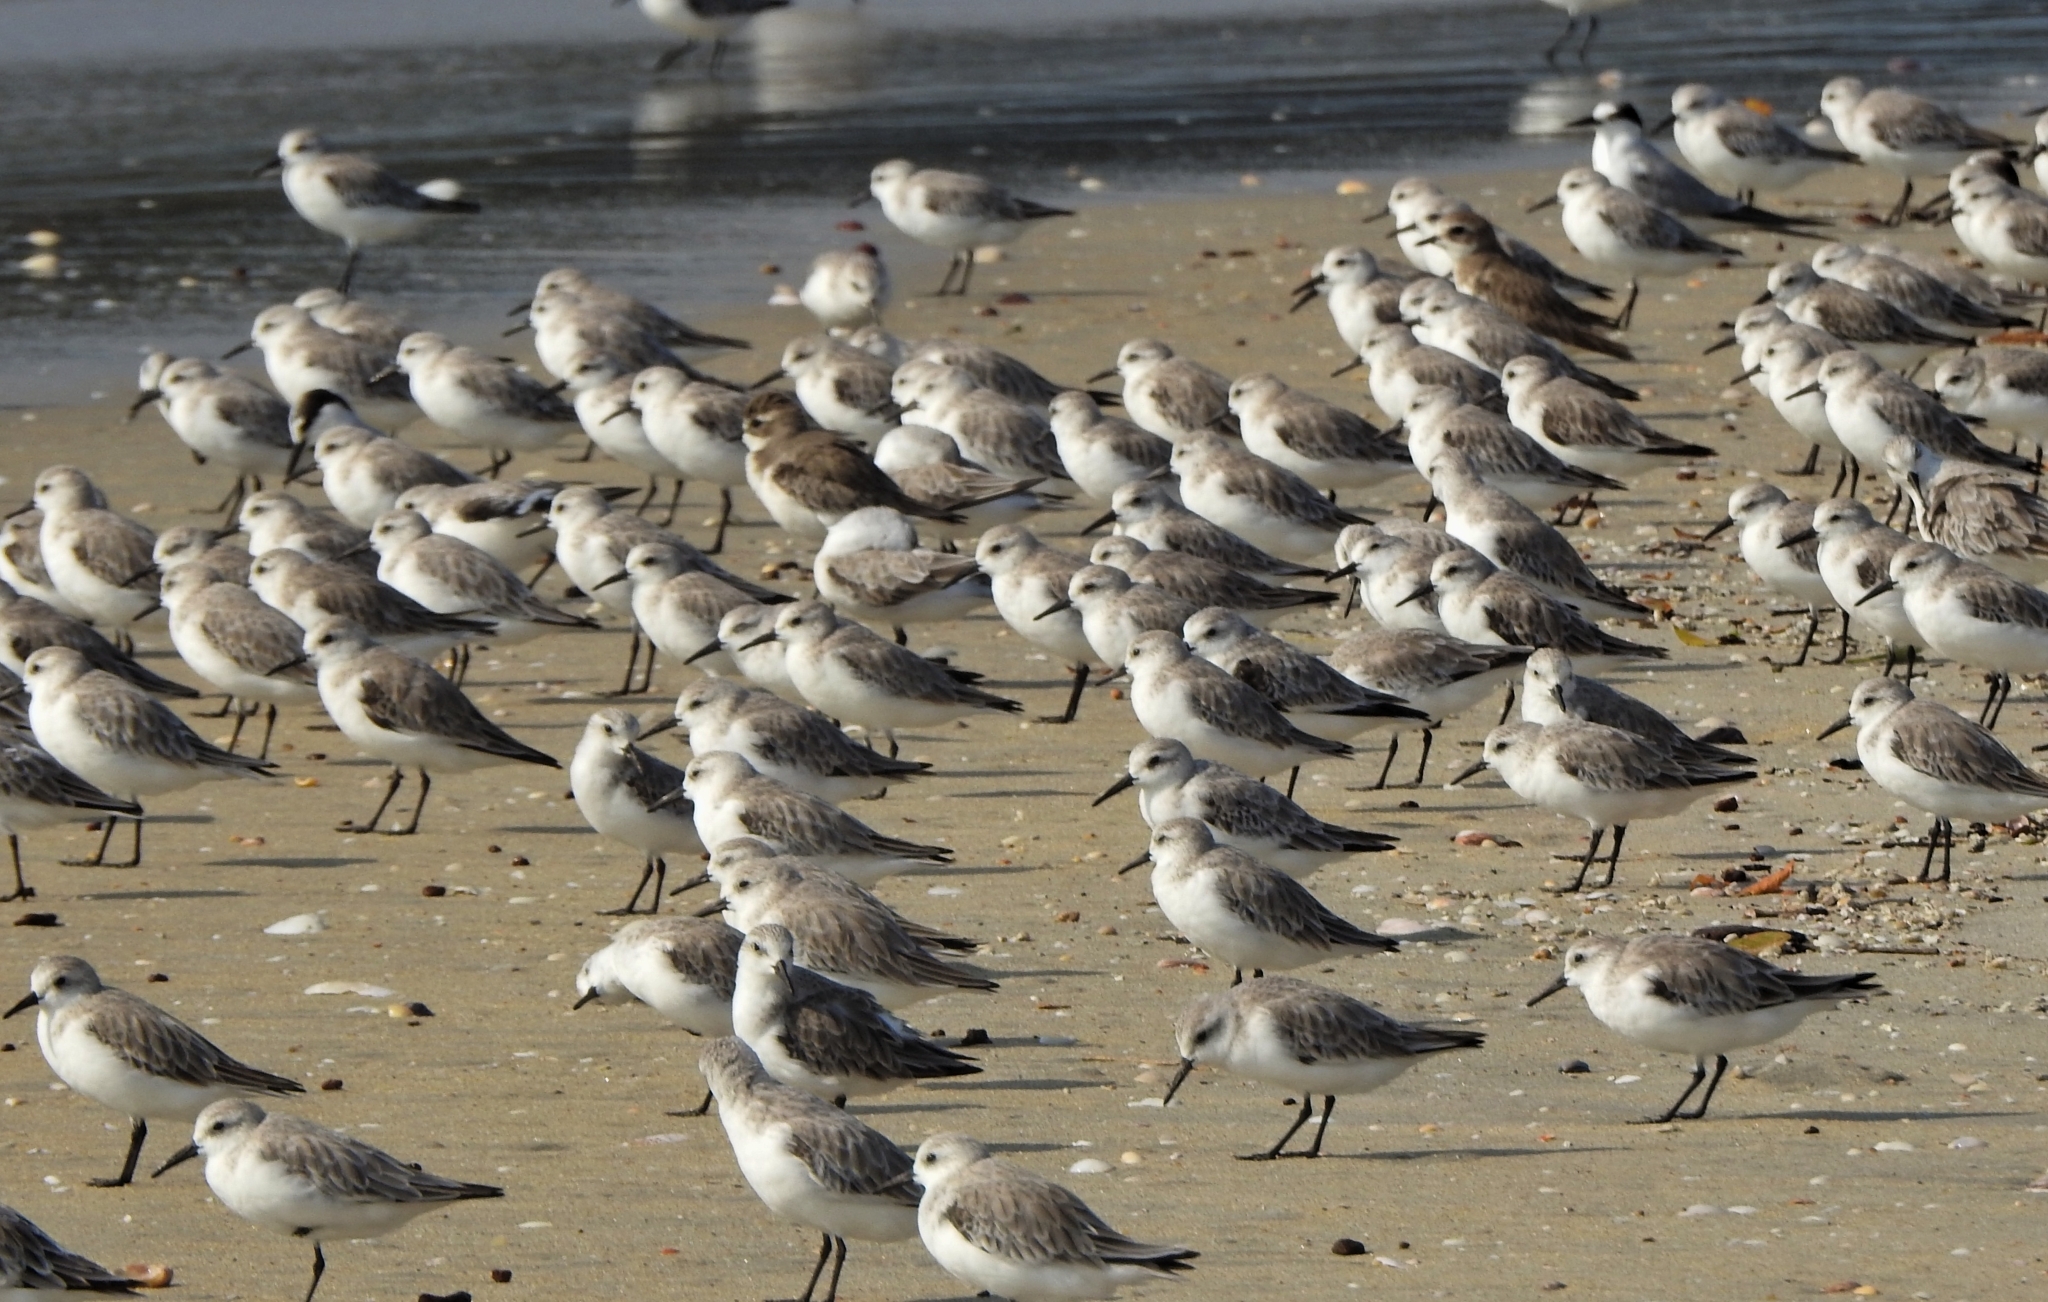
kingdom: Animalia
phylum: Chordata
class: Aves
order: Charadriiformes
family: Scolopacidae
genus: Calidris
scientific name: Calidris alba
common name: Sanderling
